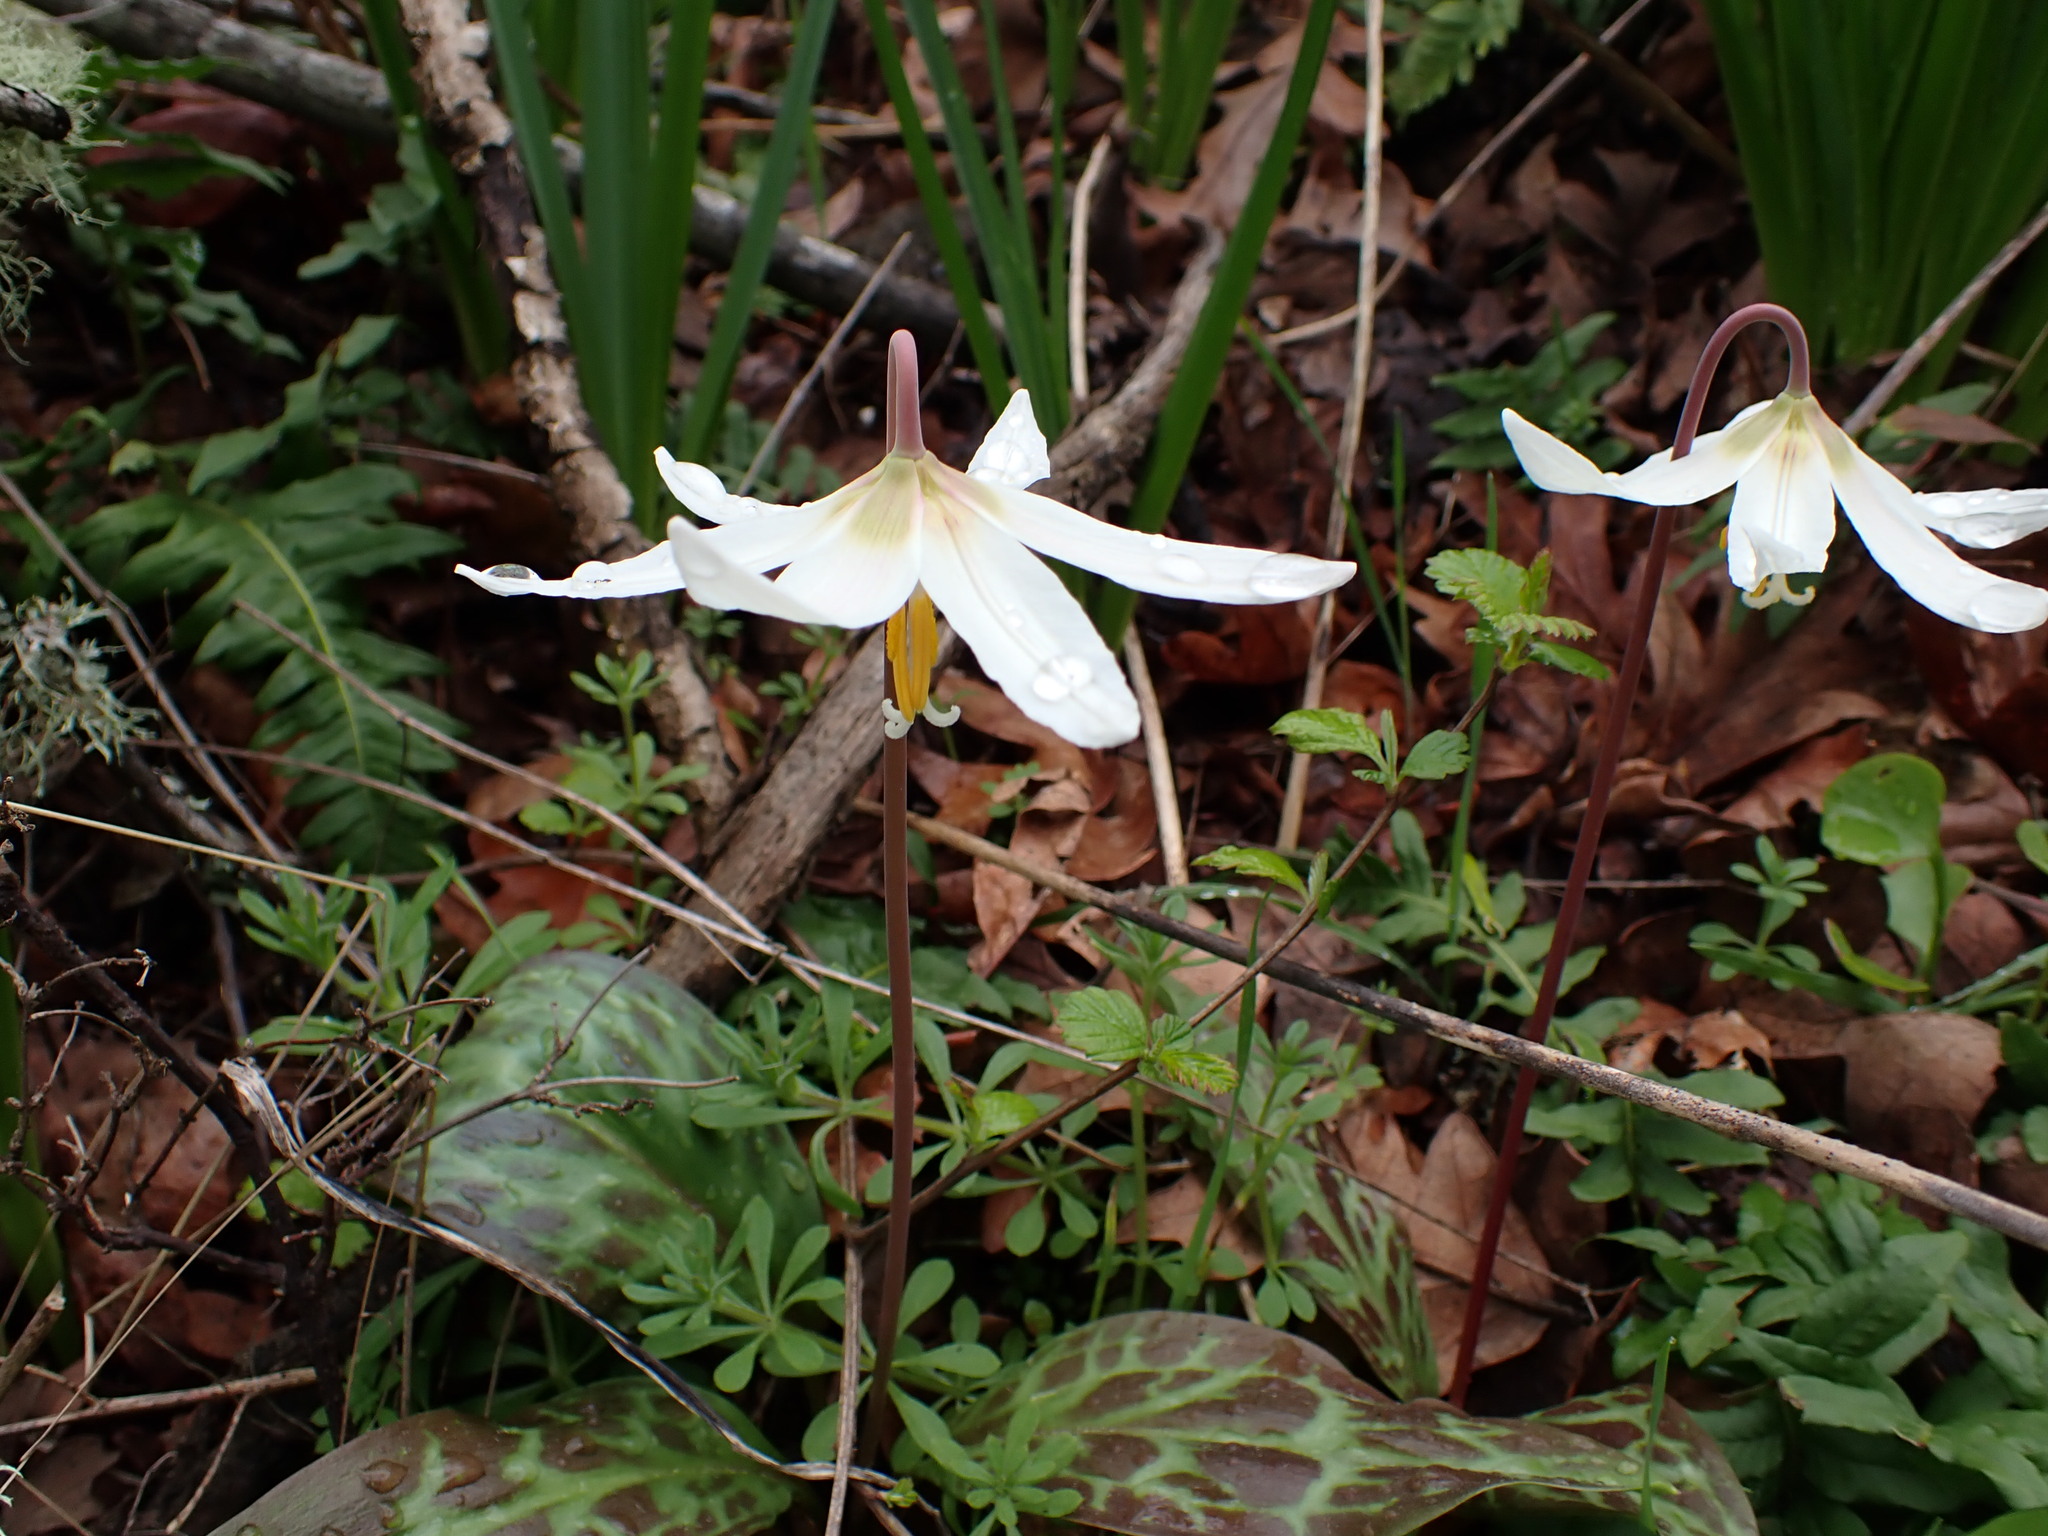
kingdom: Plantae
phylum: Tracheophyta
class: Liliopsida
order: Liliales
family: Liliaceae
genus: Erythronium
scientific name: Erythronium oregonum
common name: Giant adder's-tongue
